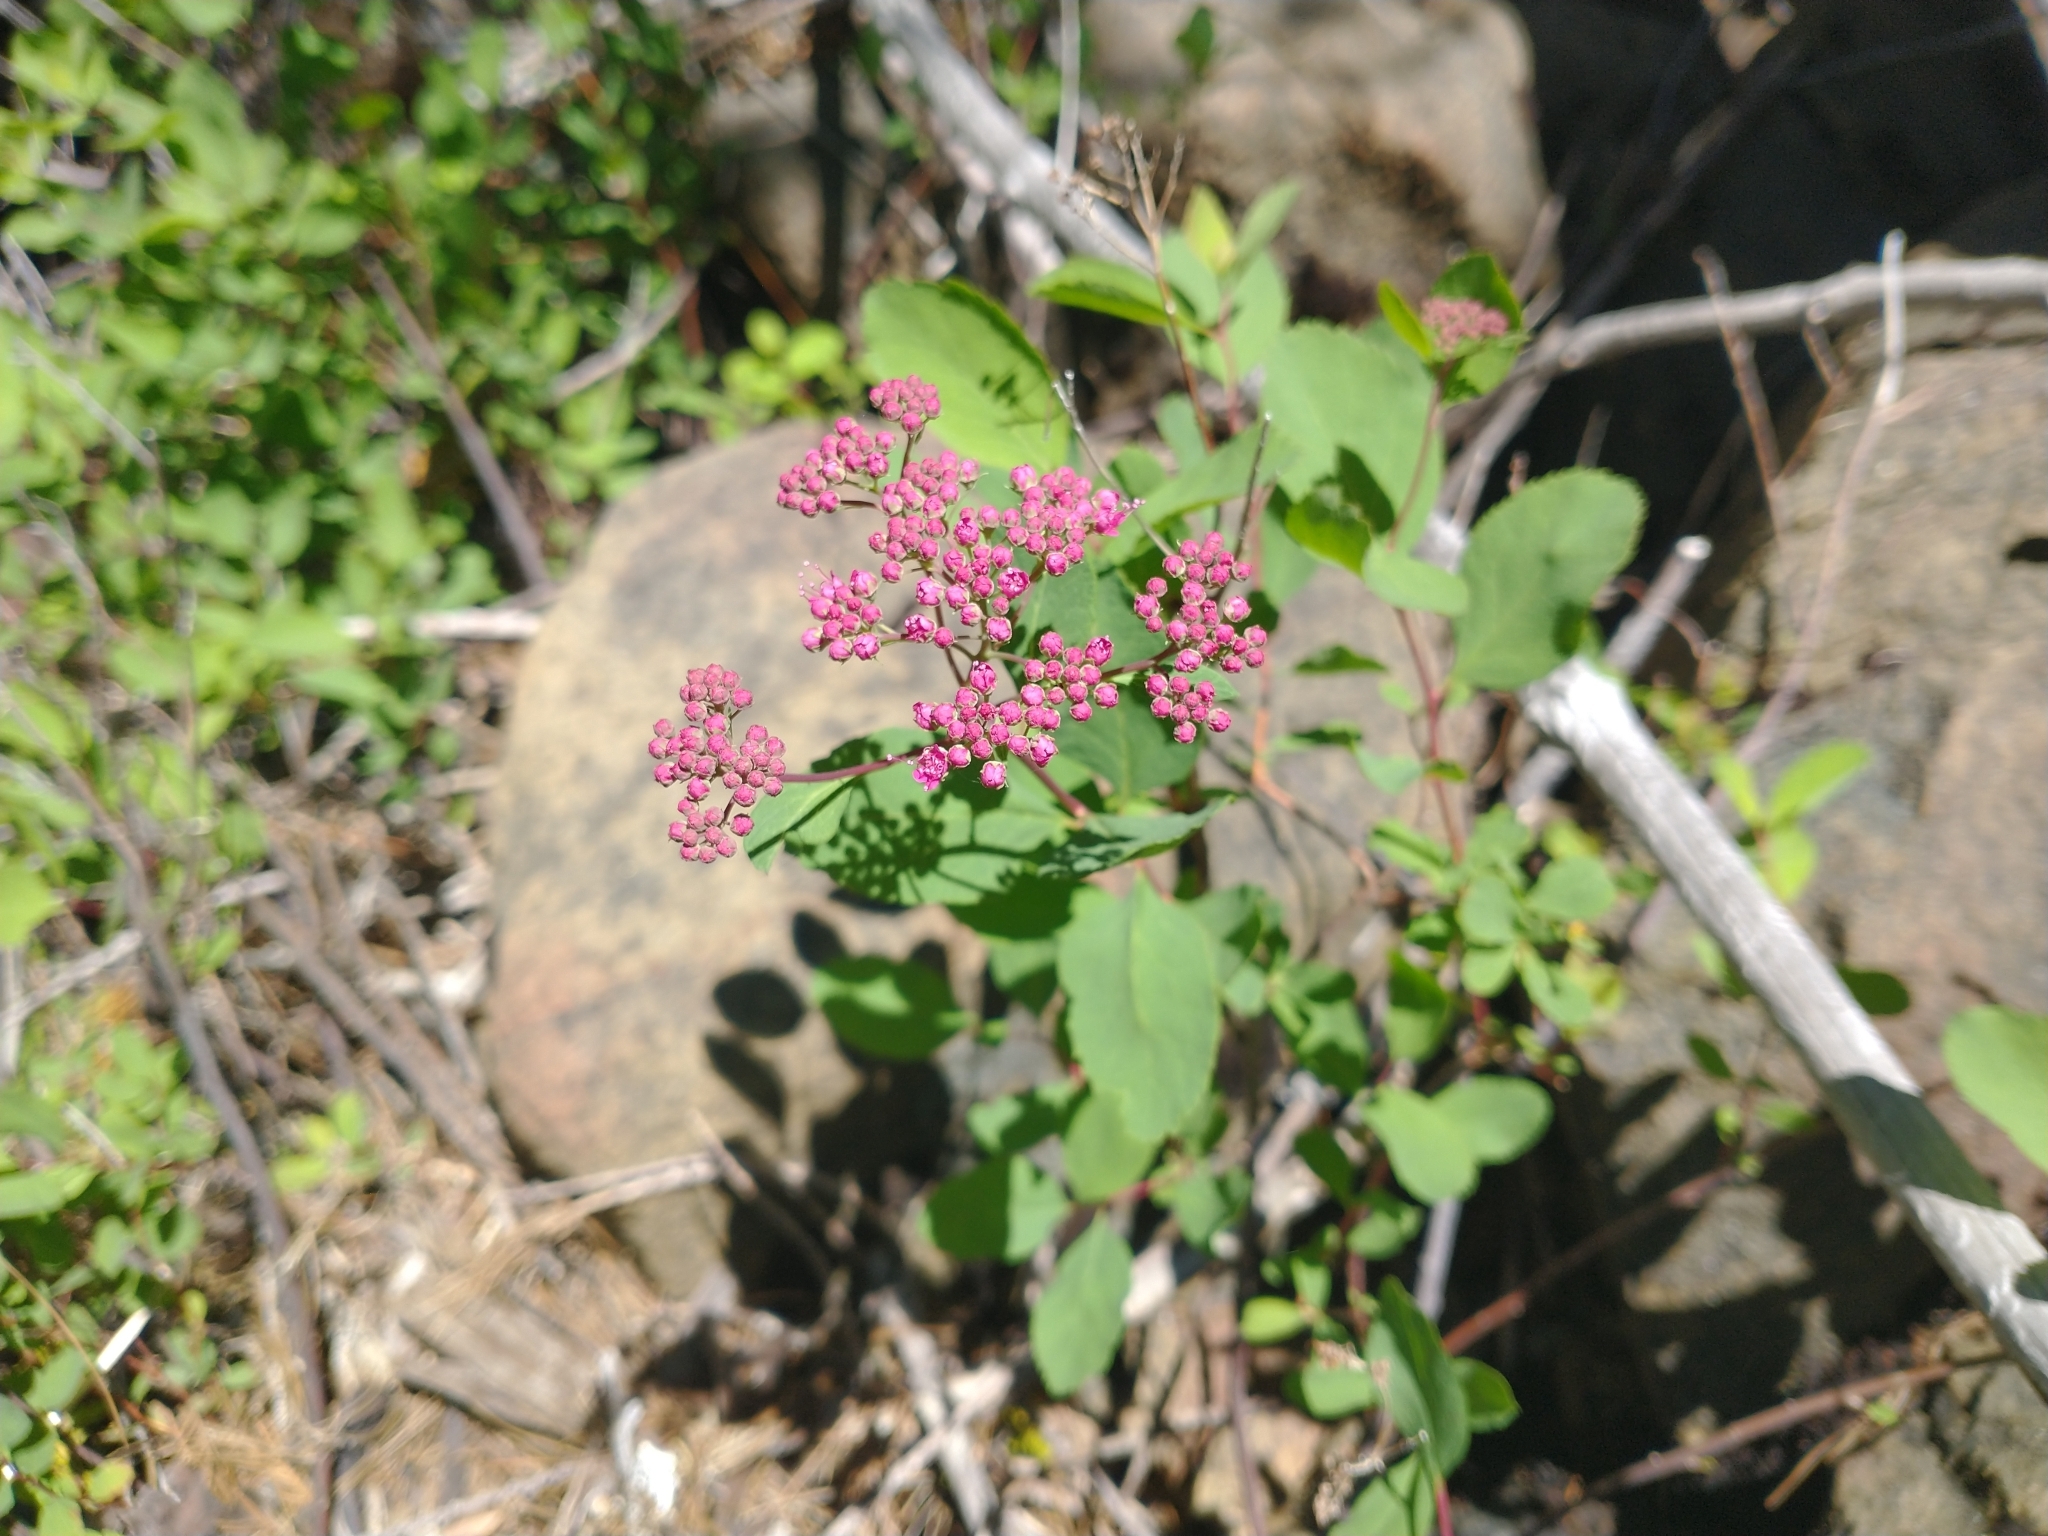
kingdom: Plantae
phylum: Tracheophyta
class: Magnoliopsida
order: Rosales
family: Rosaceae
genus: Spiraea
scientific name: Spiraea splendens
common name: Subalpine meadowsweet
